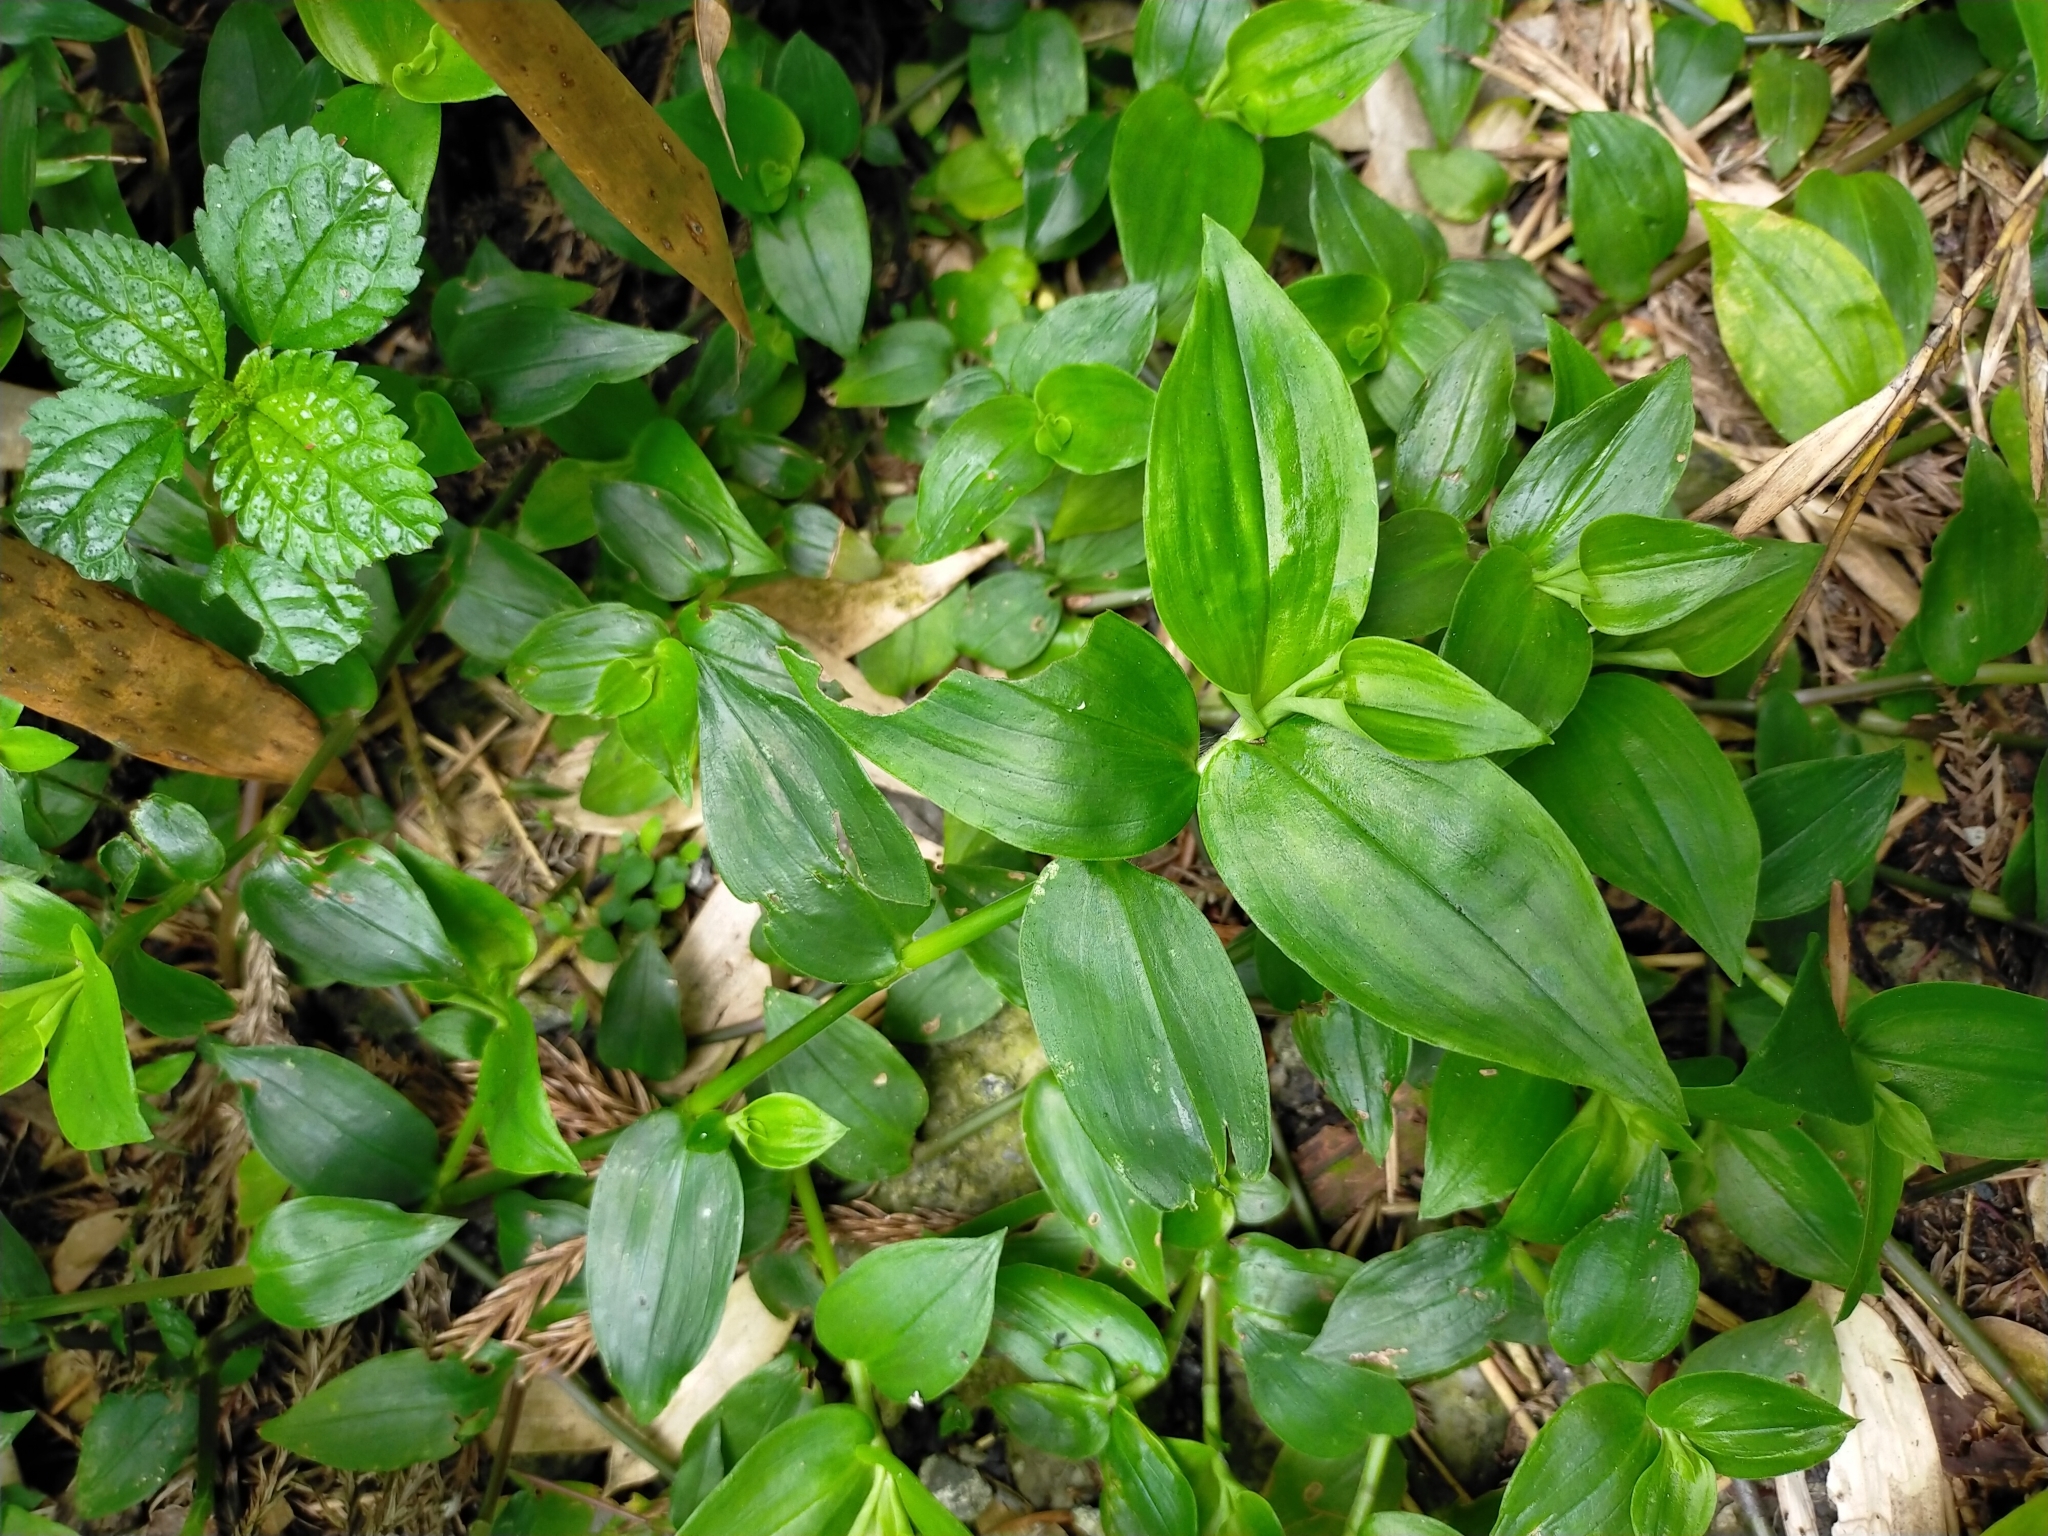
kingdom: Plantae
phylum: Tracheophyta
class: Liliopsida
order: Commelinales
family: Commelinaceae
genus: Tradescantia
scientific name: Tradescantia fluminensis
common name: Wandering-jew
